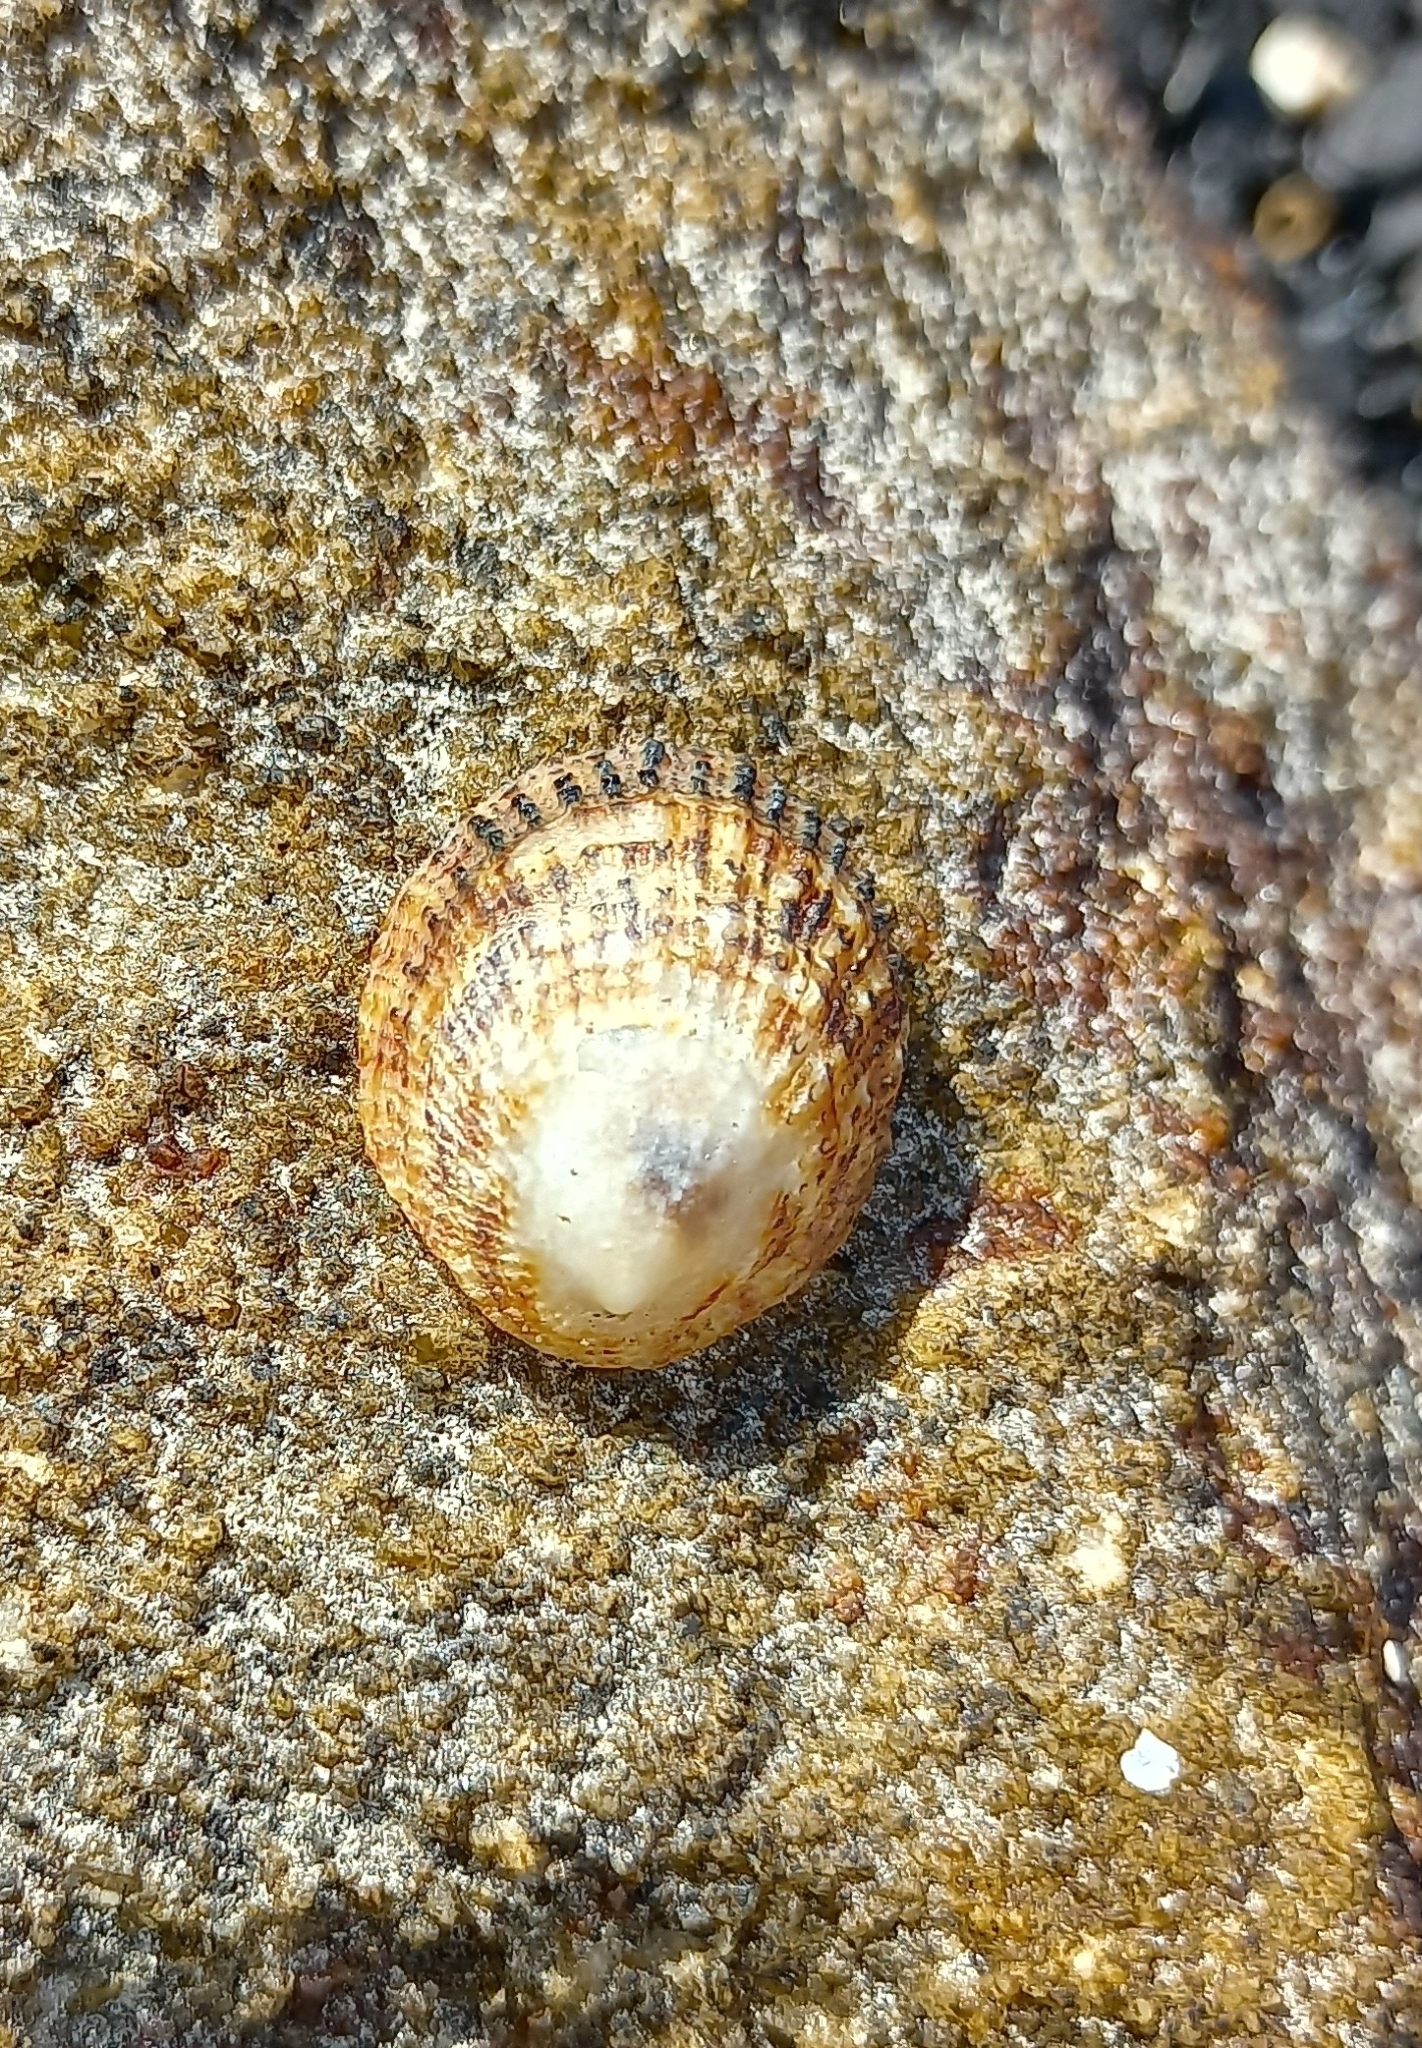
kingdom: Animalia
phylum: Mollusca
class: Gastropoda
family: Patellidae
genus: Helcion
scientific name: Helcion pectunculus
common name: Prickly limpet
